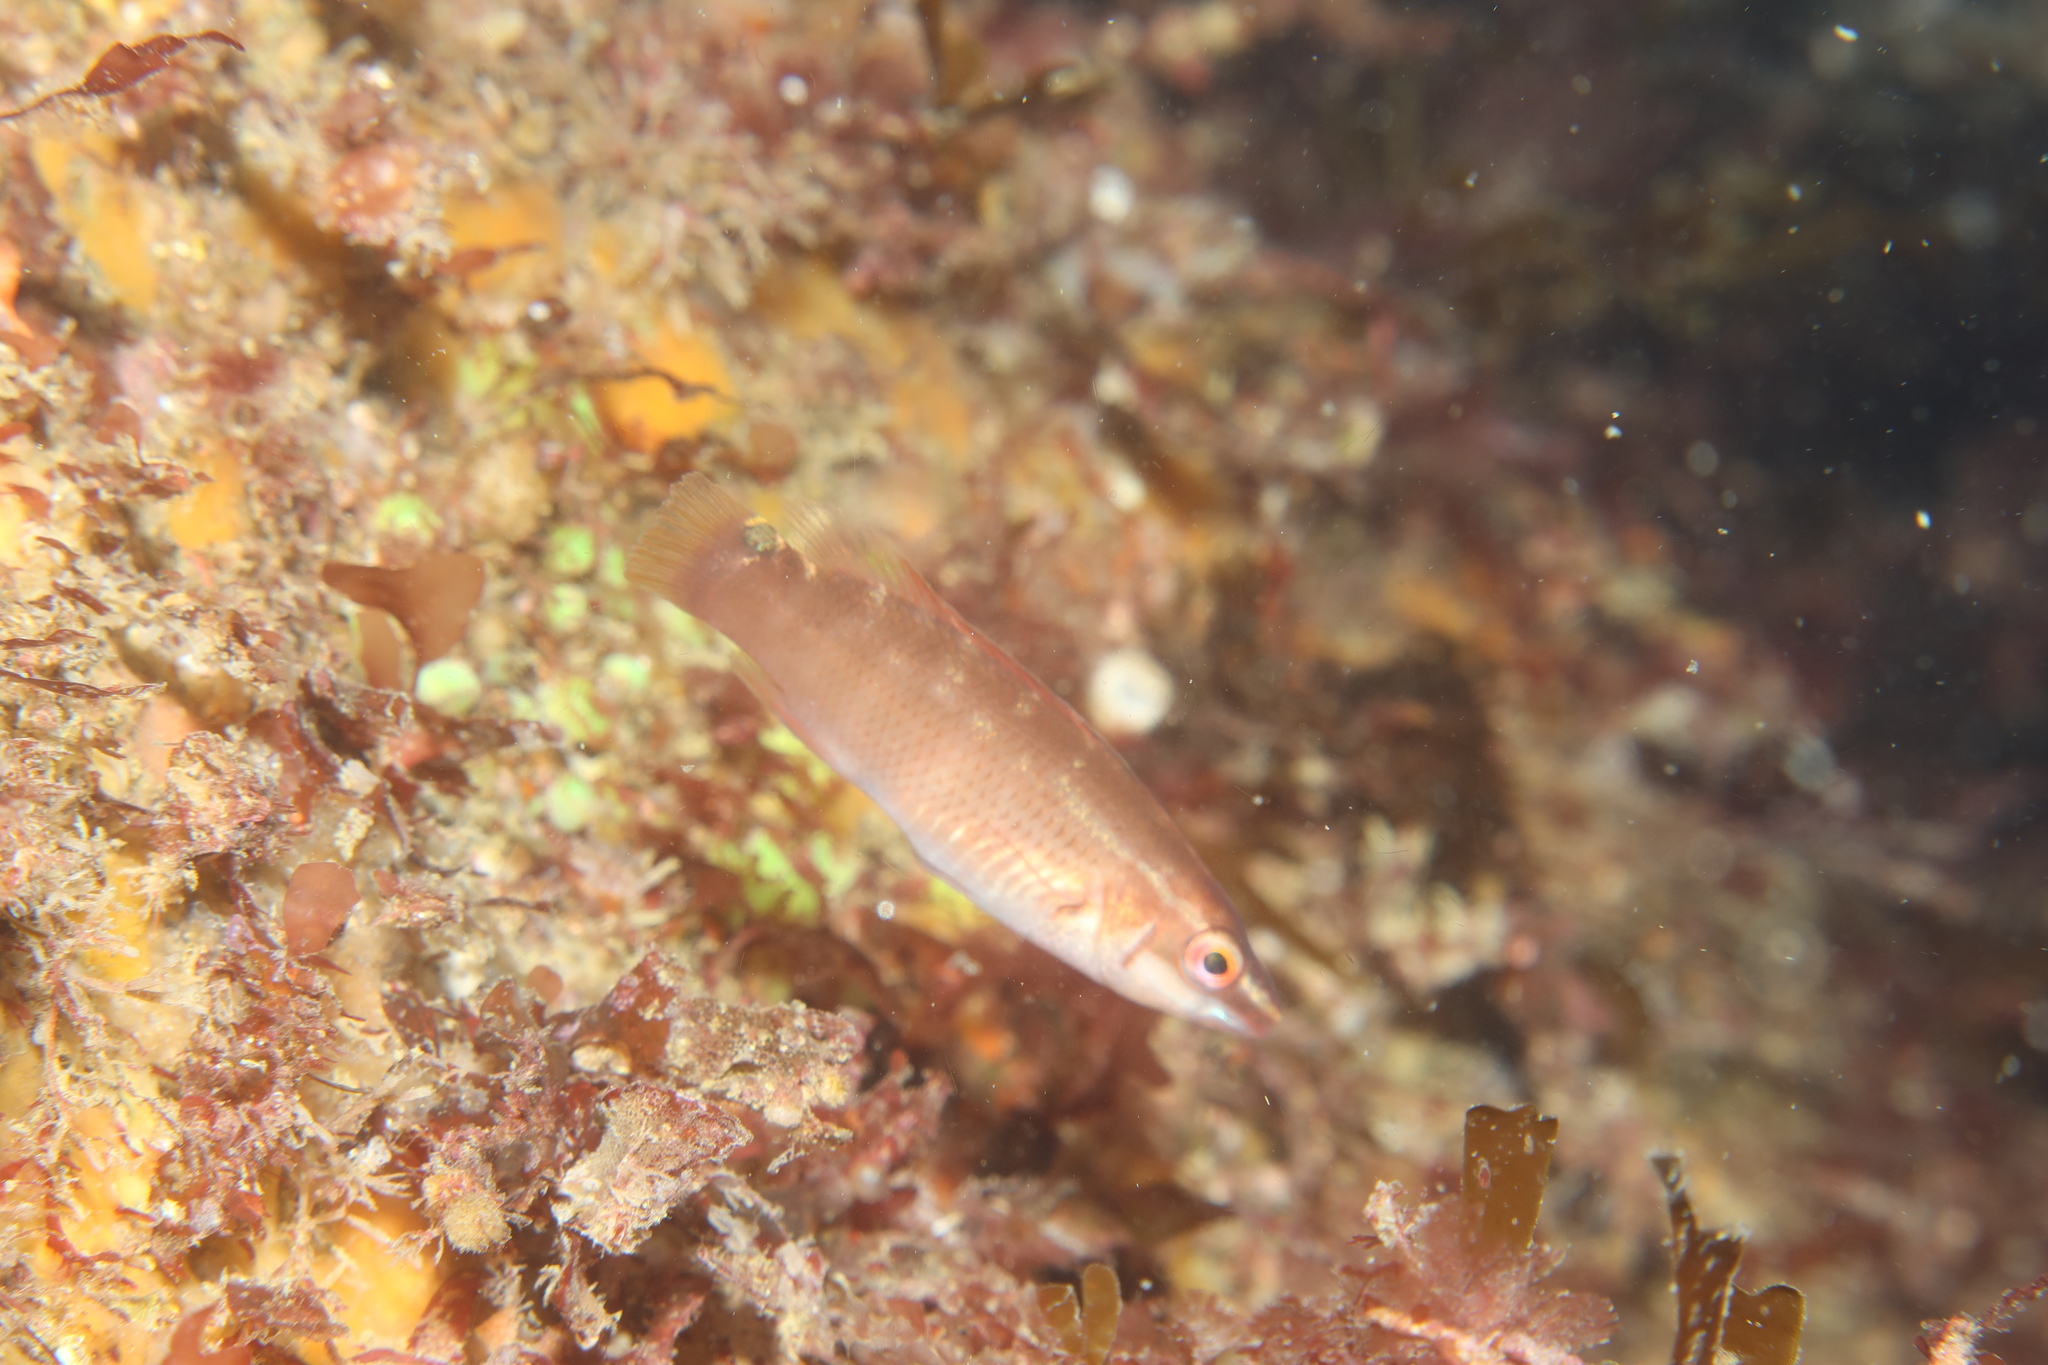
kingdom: Animalia
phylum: Chordata
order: Perciformes
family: Labridae
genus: Ctenolabrus
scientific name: Ctenolabrus rupestris
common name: Goldsinny
